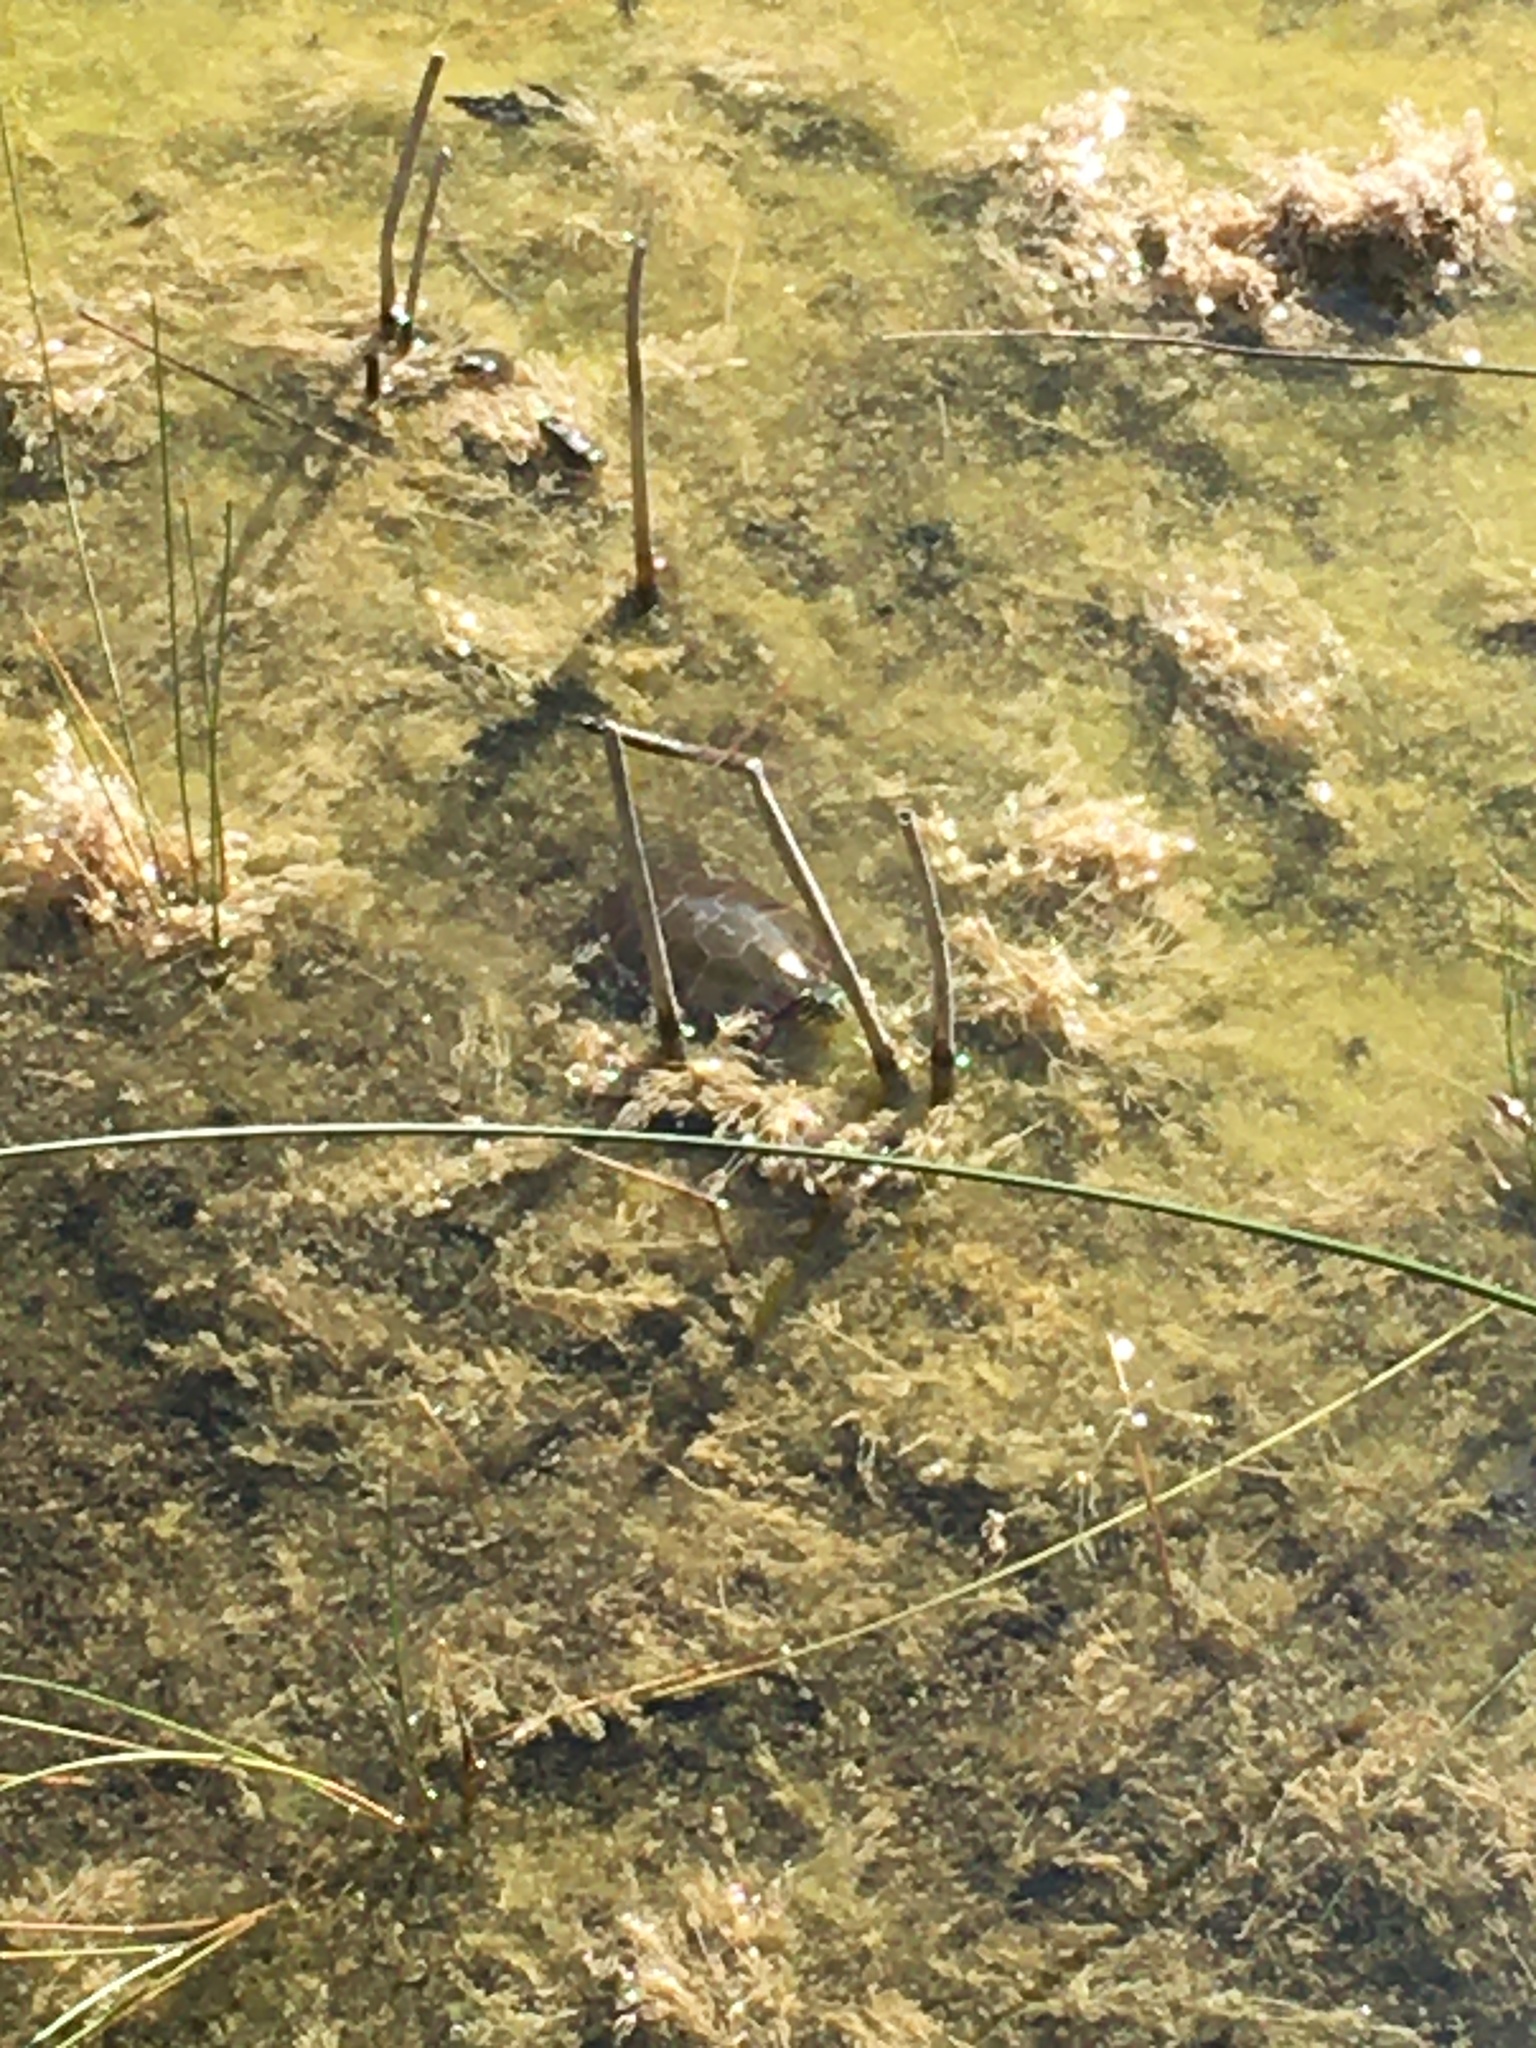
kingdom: Animalia
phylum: Chordata
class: Testudines
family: Emydidae
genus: Chrysemys
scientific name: Chrysemys picta
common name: Painted turtle
